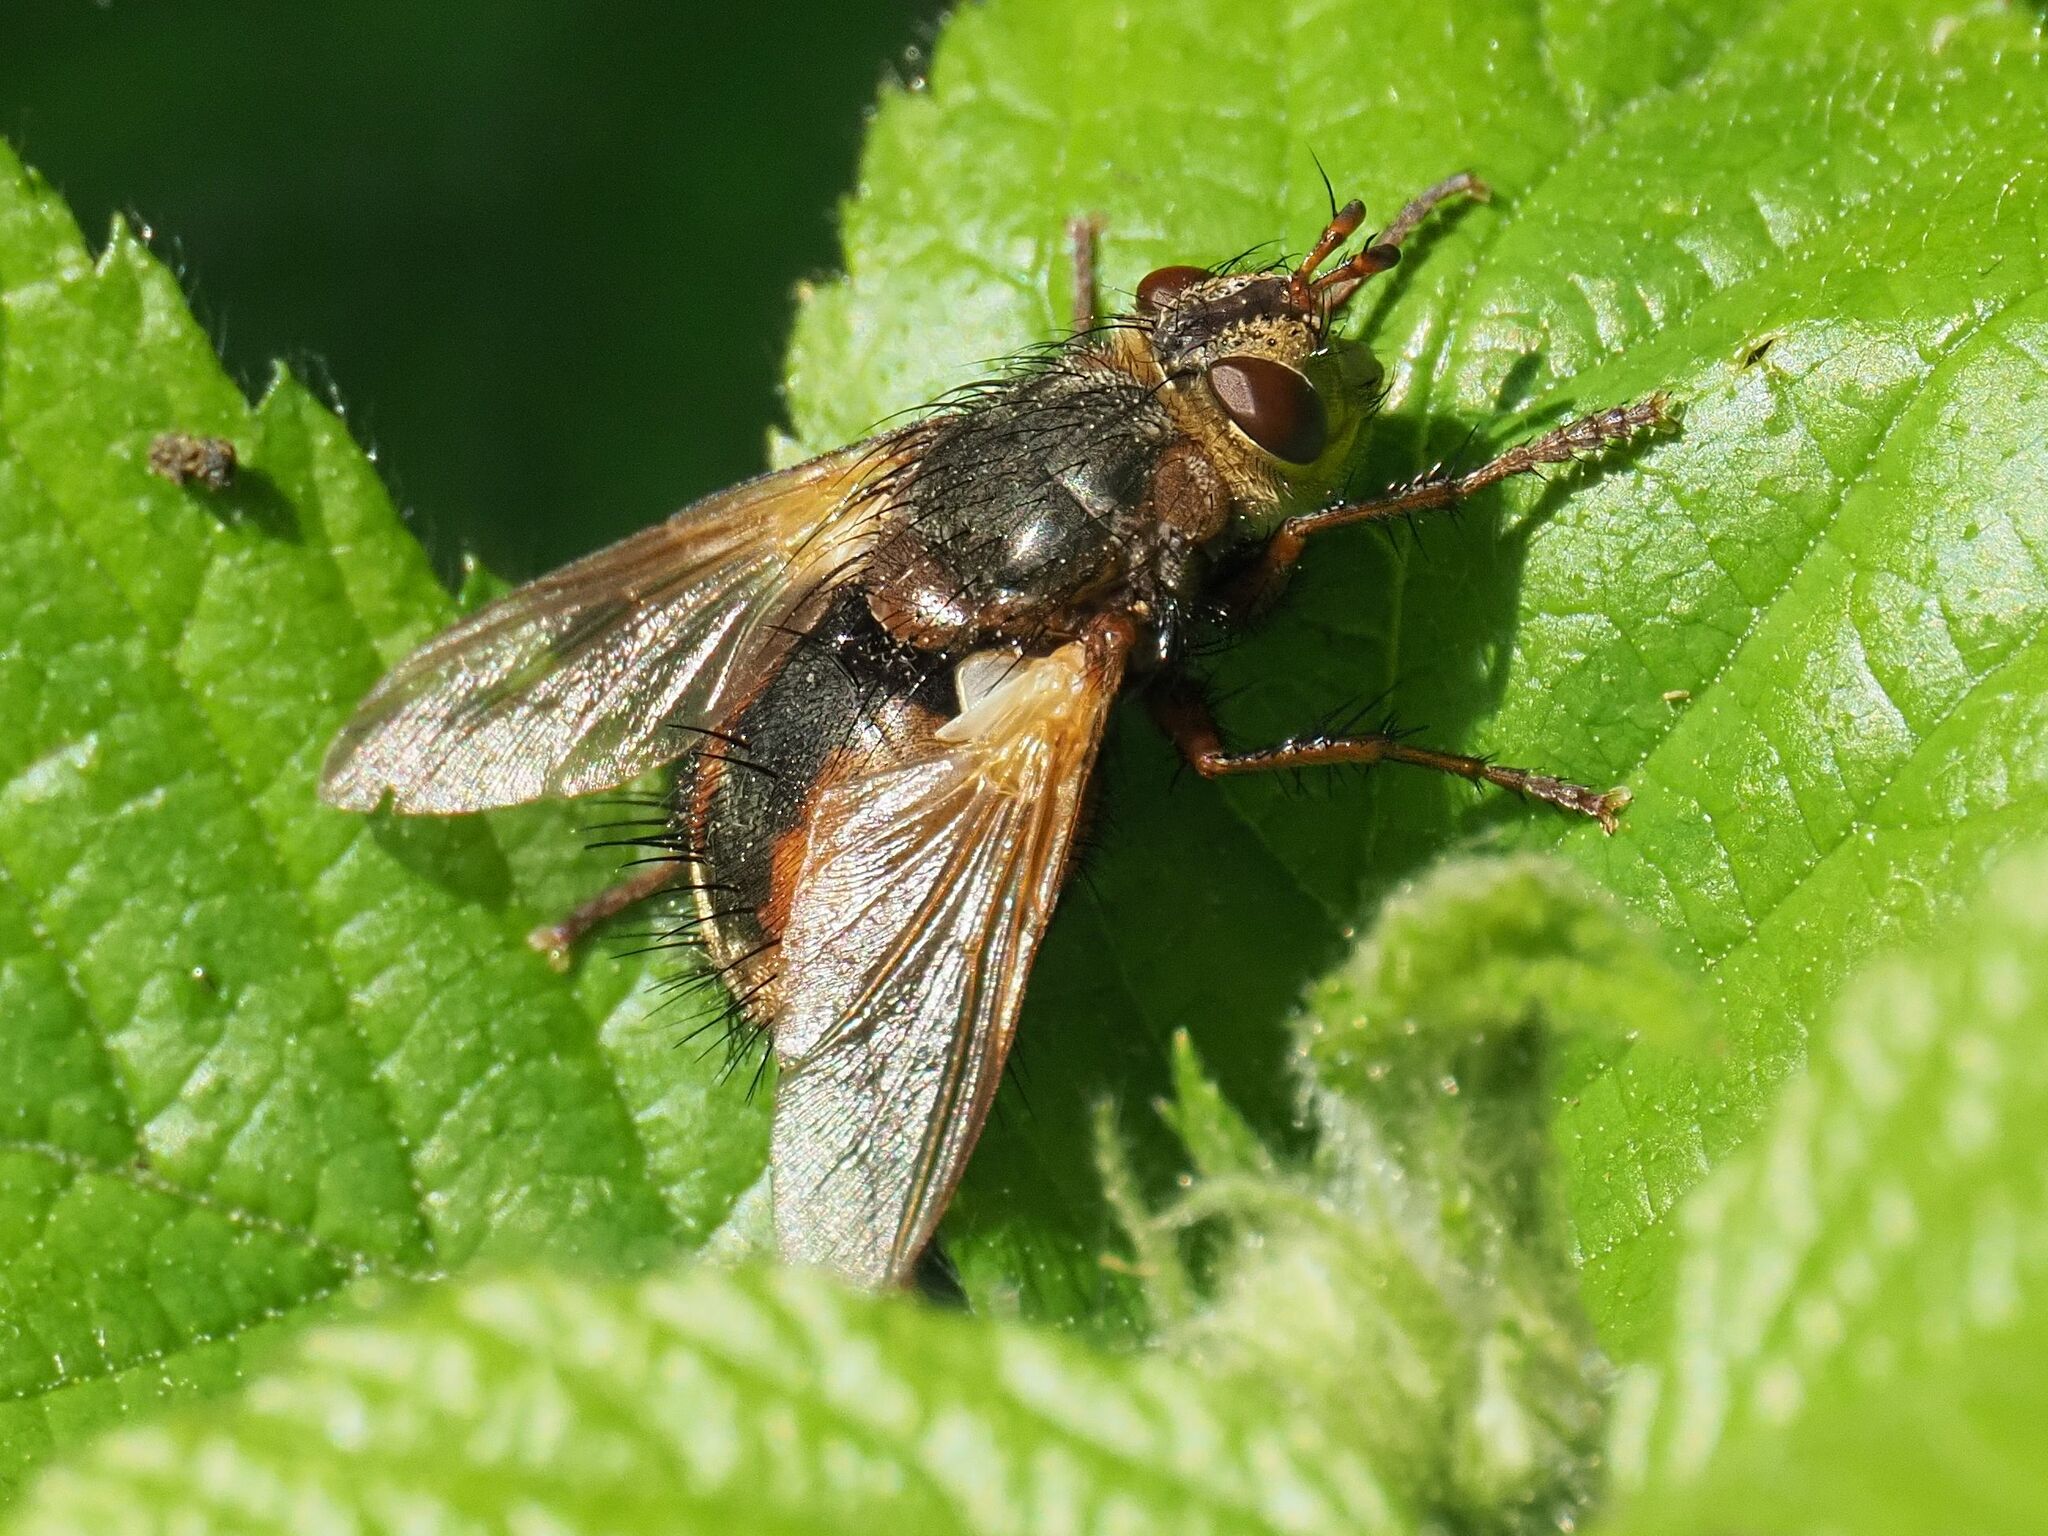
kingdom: Animalia
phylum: Arthropoda
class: Insecta
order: Diptera
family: Tachinidae
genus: Tachina
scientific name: Tachina fera
